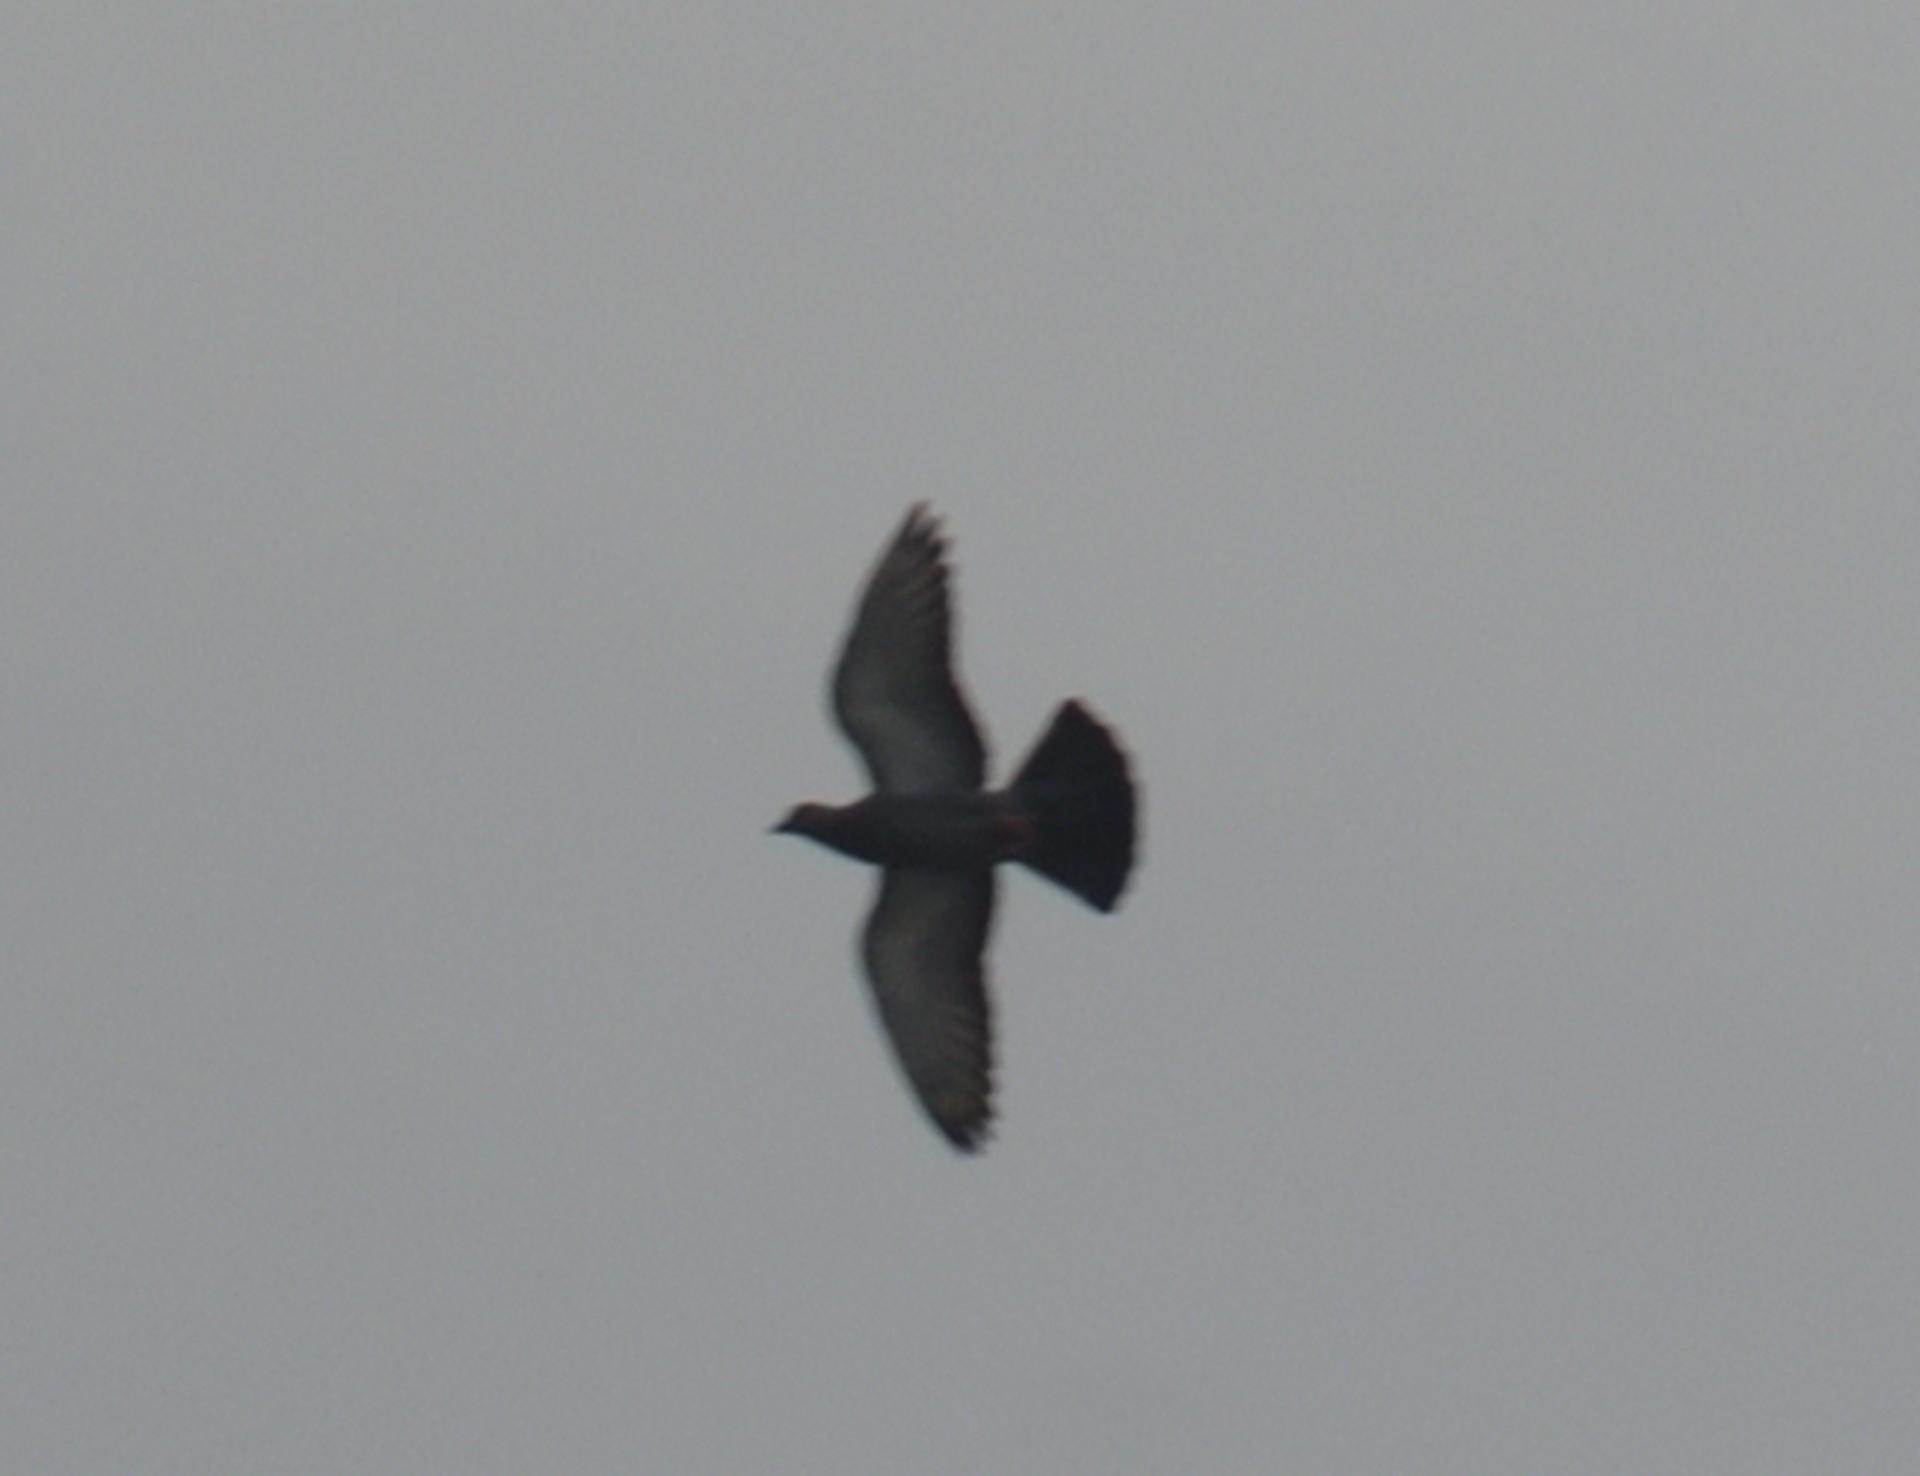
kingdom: Animalia
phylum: Chordata
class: Aves
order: Columbiformes
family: Columbidae
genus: Columba
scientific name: Columba livia
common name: Rock pigeon
